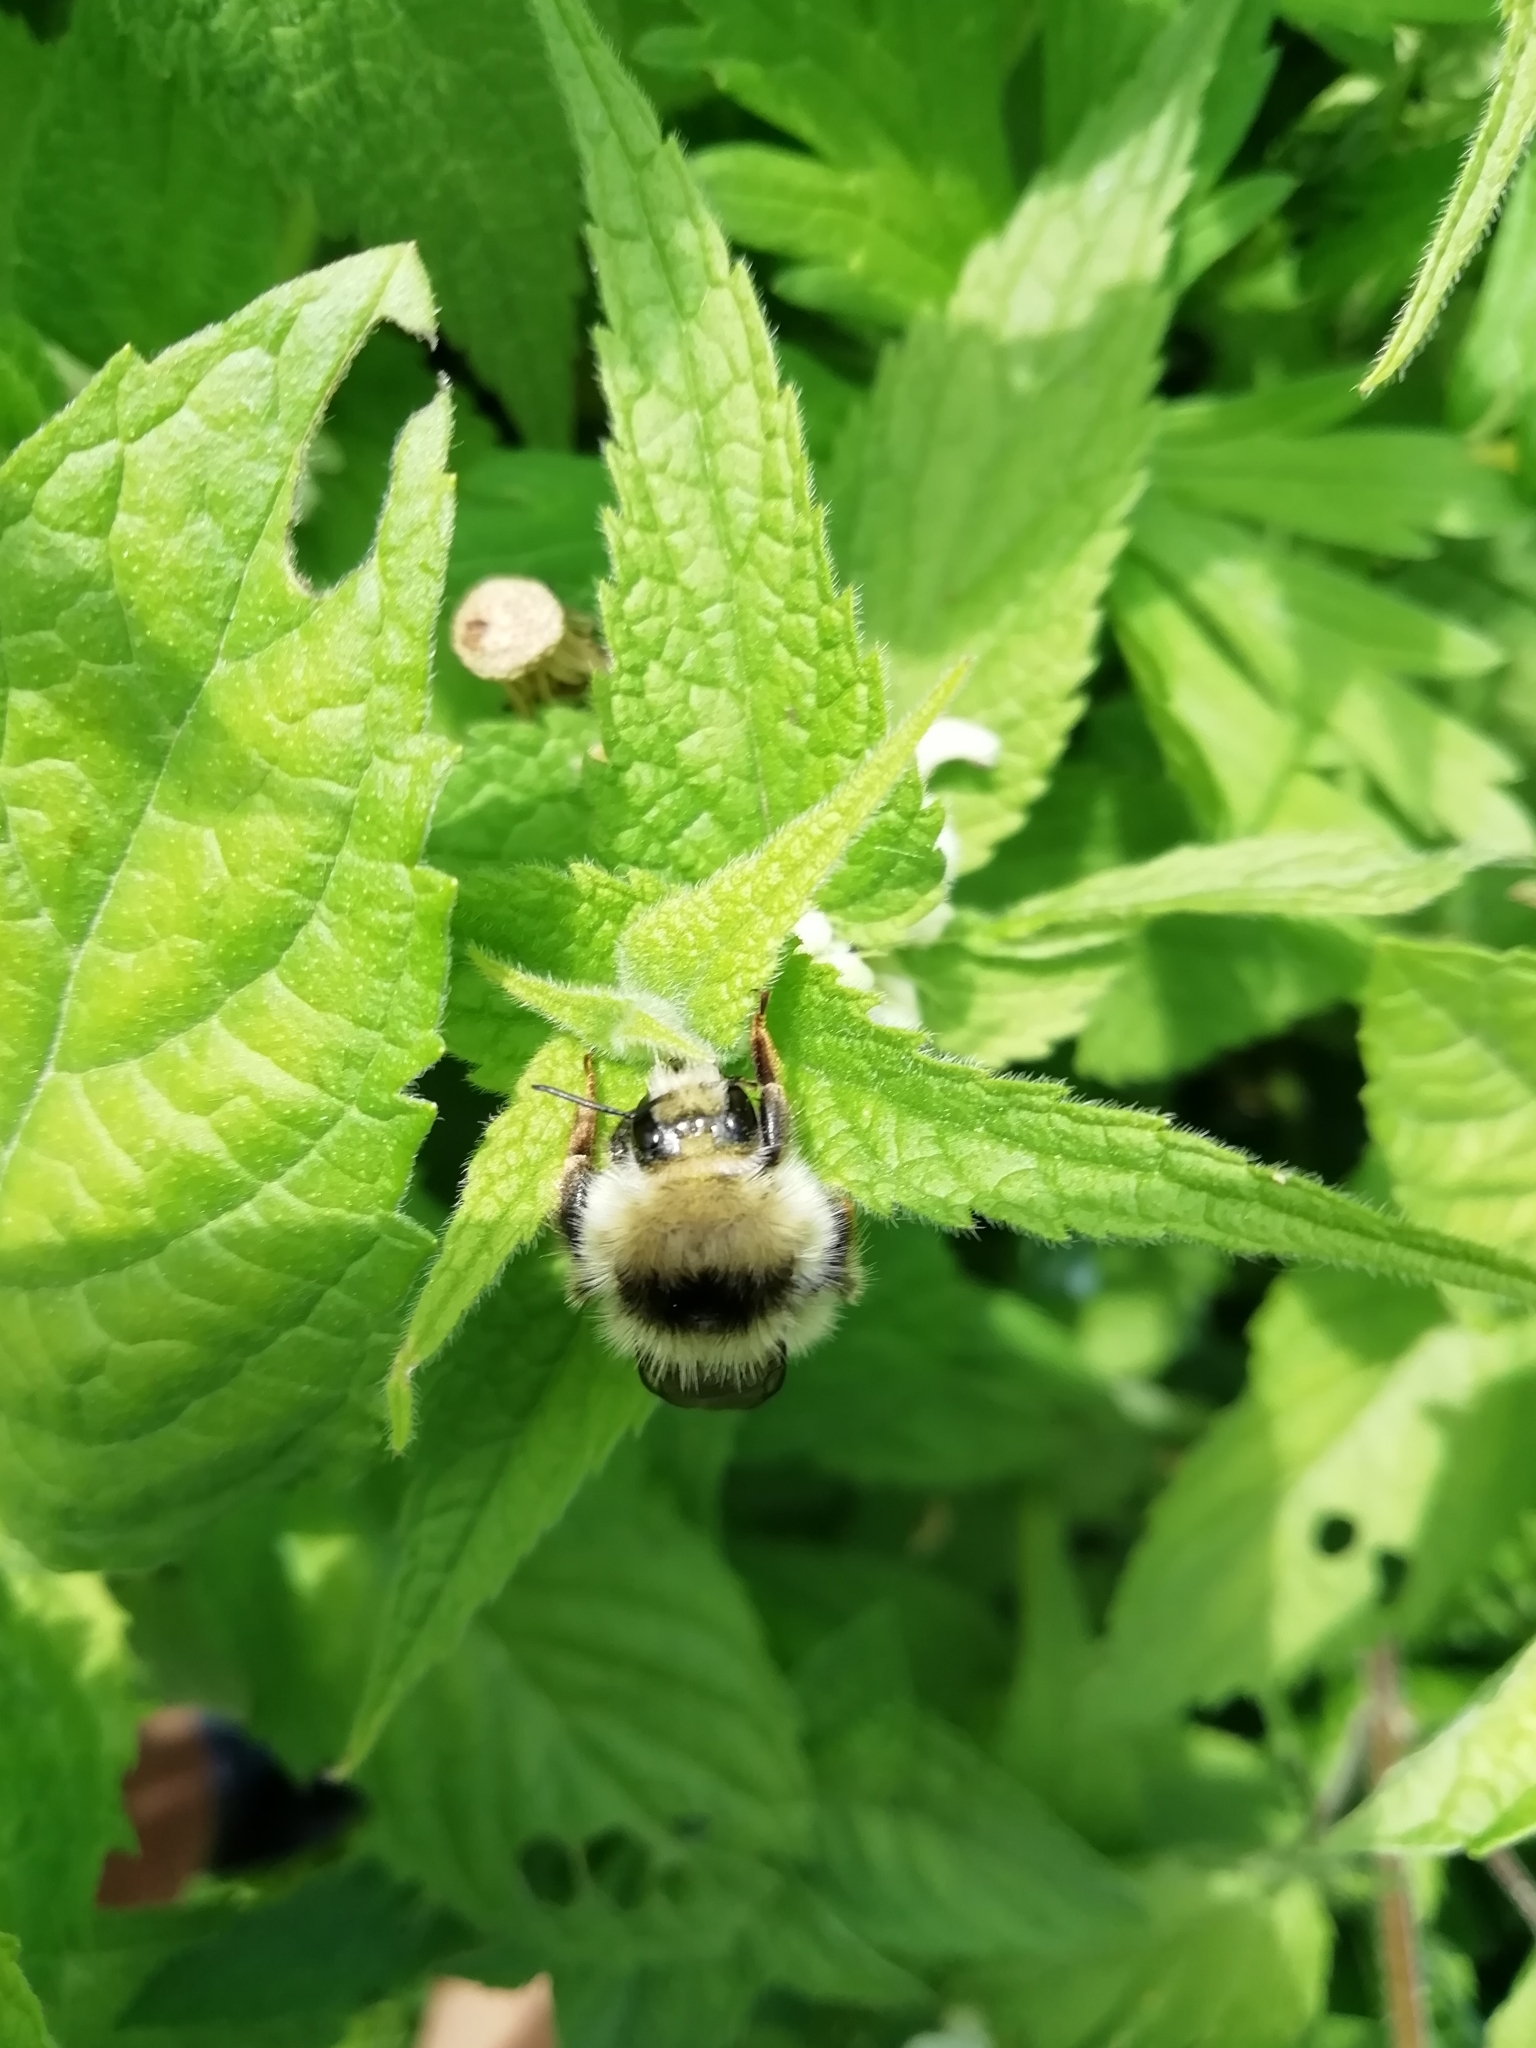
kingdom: Animalia
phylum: Arthropoda
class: Insecta
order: Hymenoptera
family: Apidae
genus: Bombus
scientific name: Bombus veteranus
